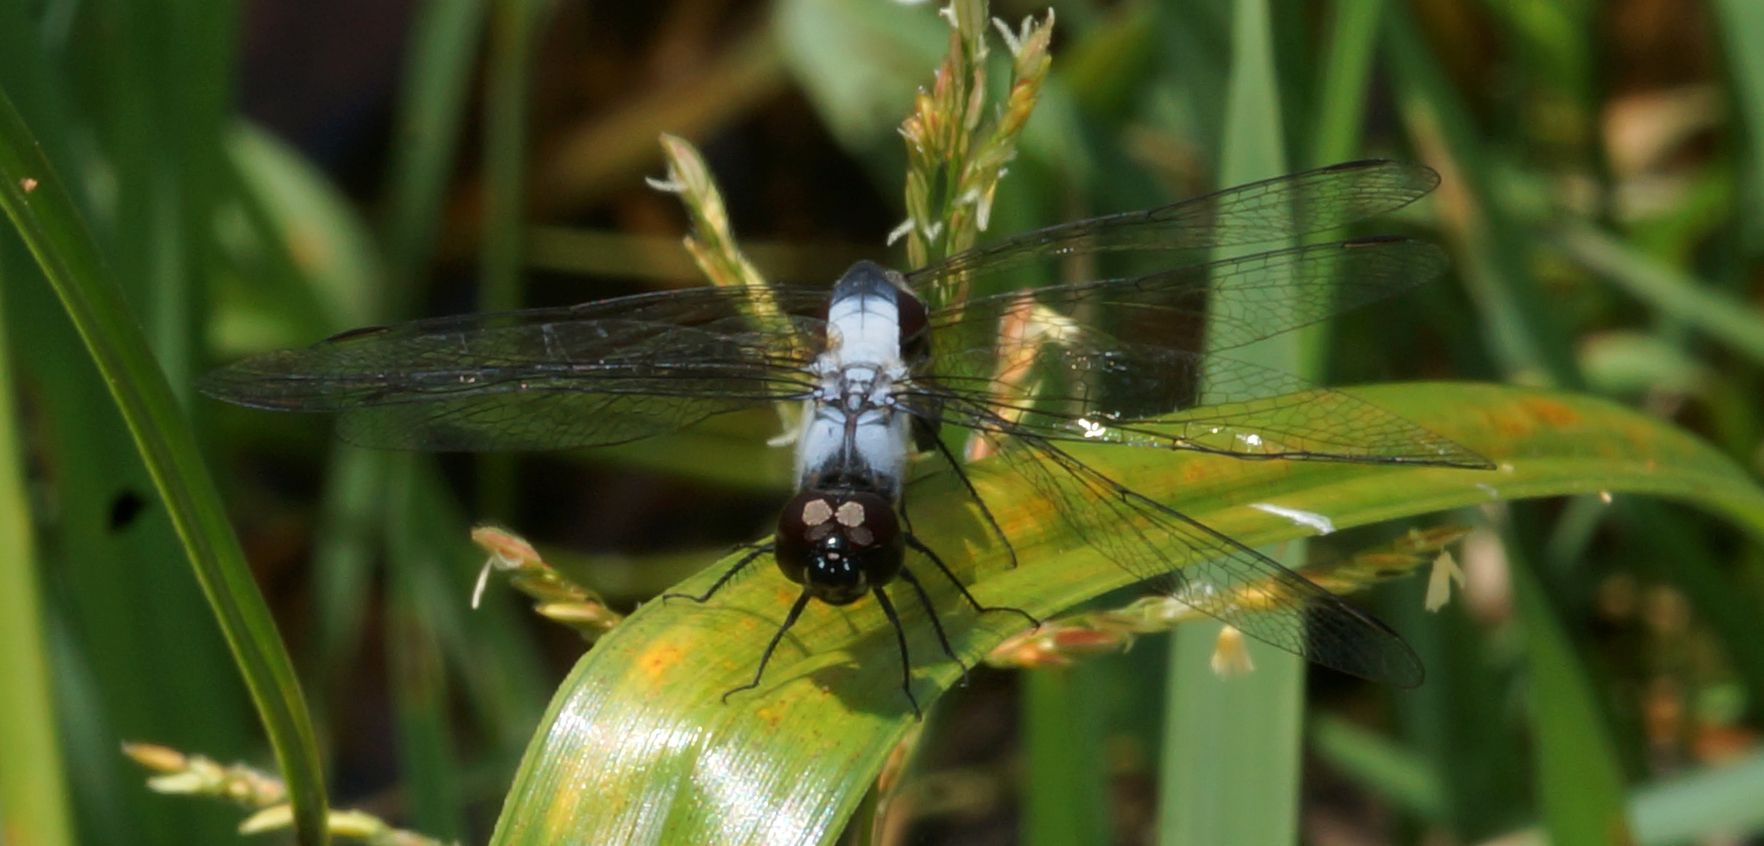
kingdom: Animalia
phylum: Arthropoda
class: Insecta
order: Odonata
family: Libellulidae
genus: Aethriamanta
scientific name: Aethriamanta gracilis
